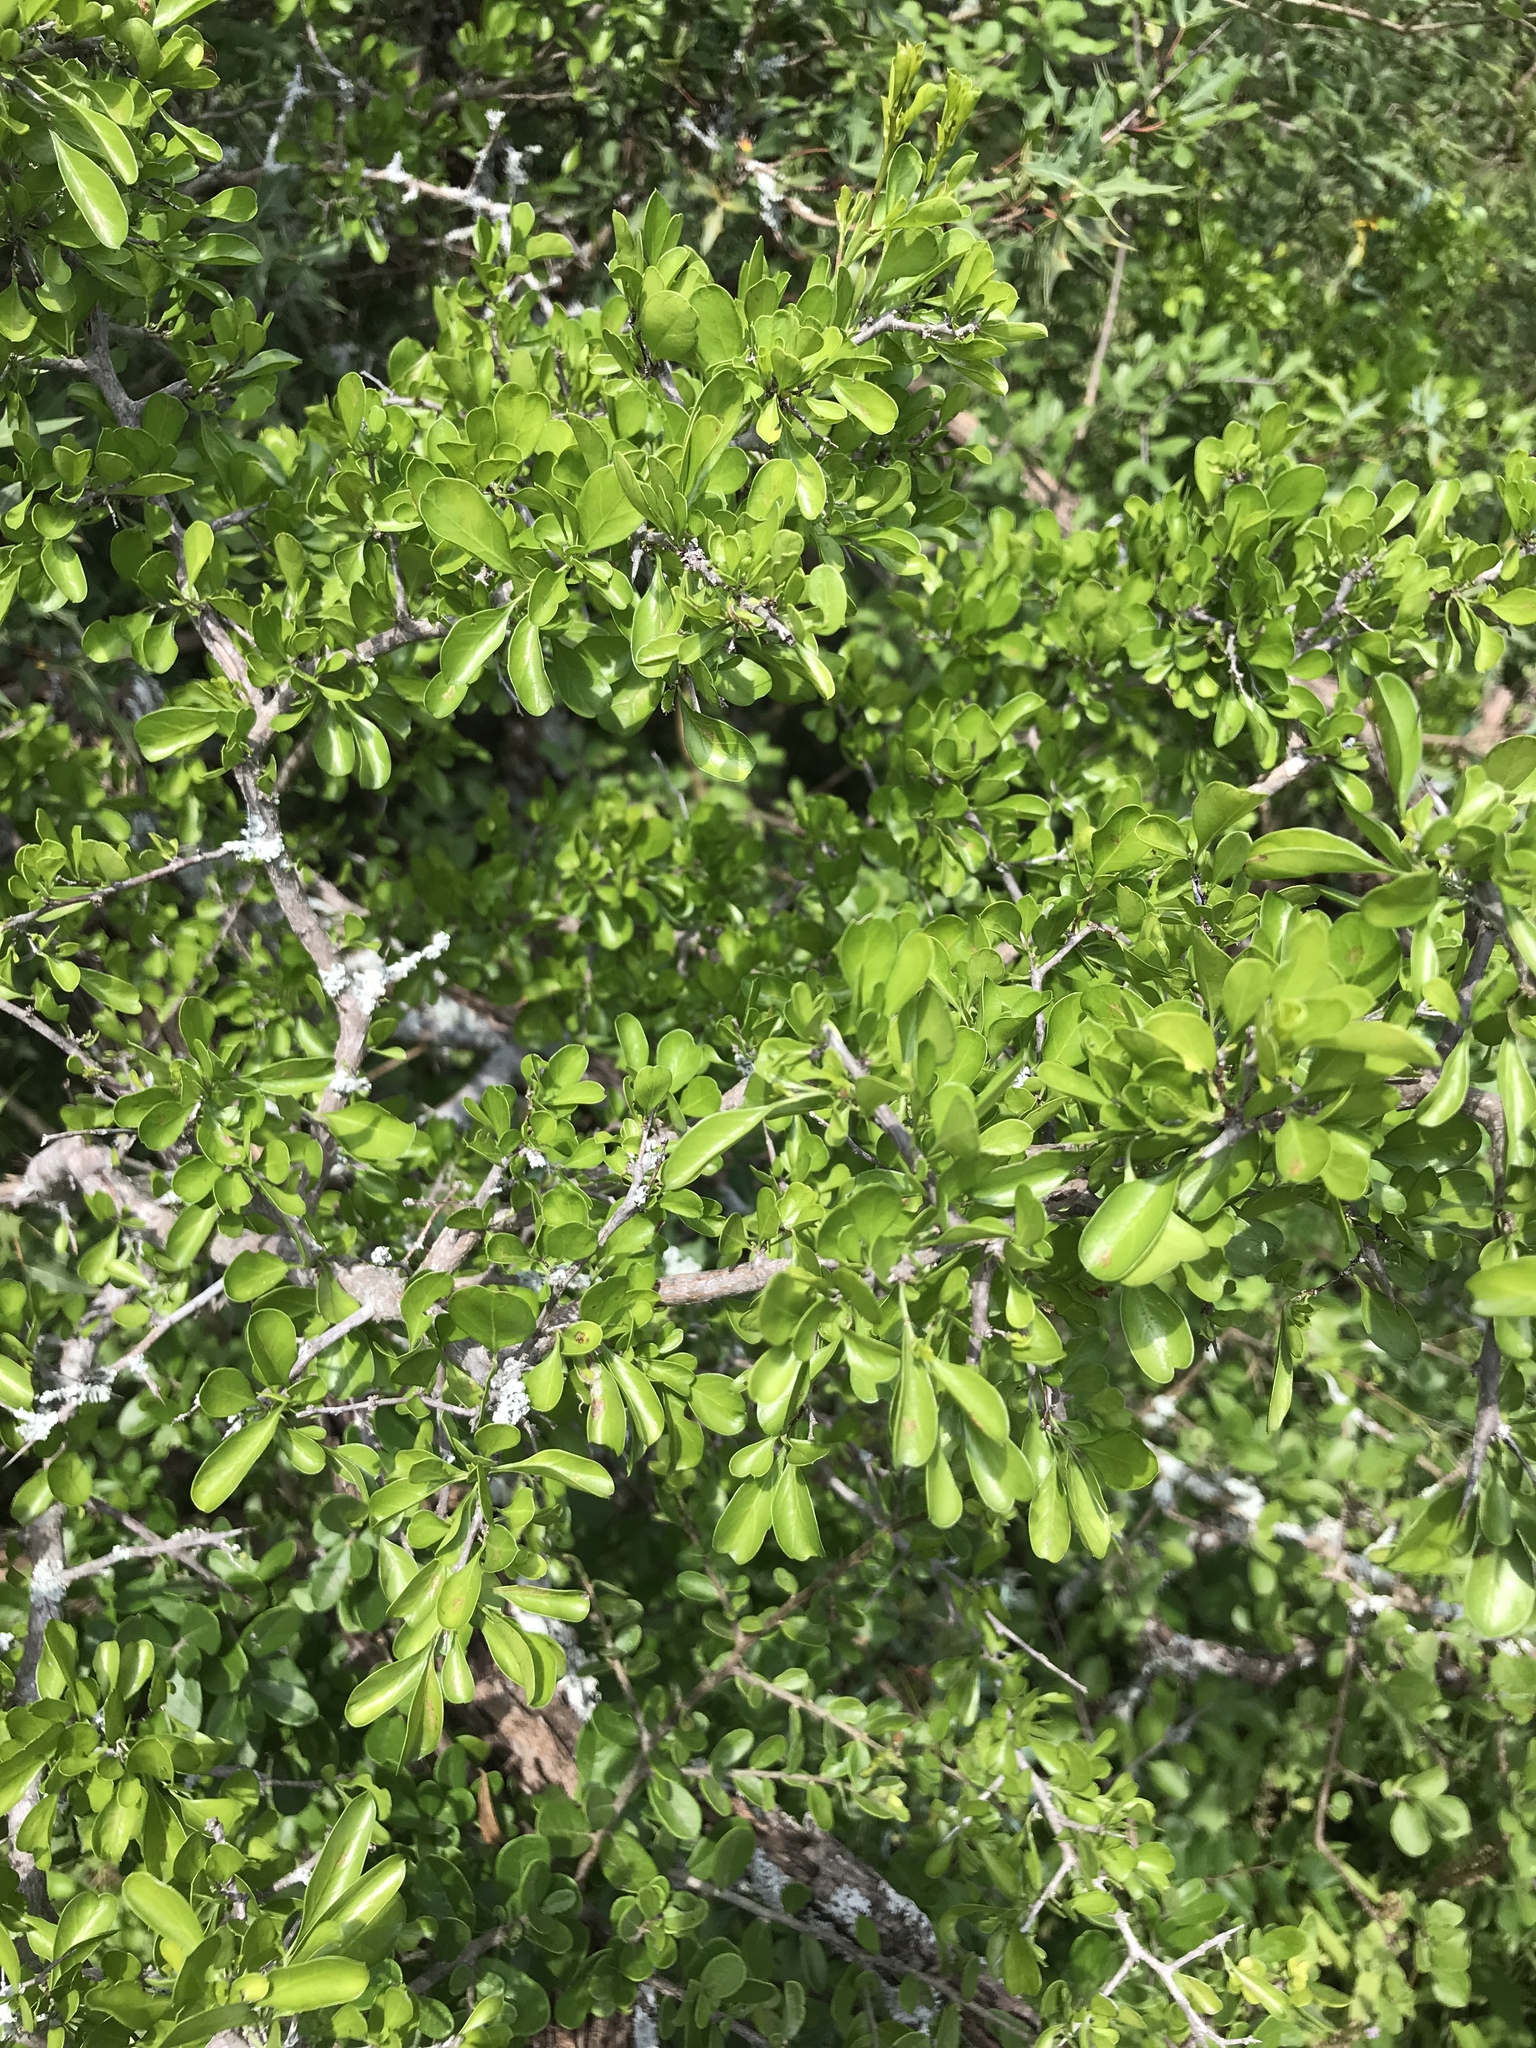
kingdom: Plantae
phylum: Tracheophyta
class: Magnoliopsida
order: Rosales
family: Rhamnaceae
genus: Condalia
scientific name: Condalia hookeri
